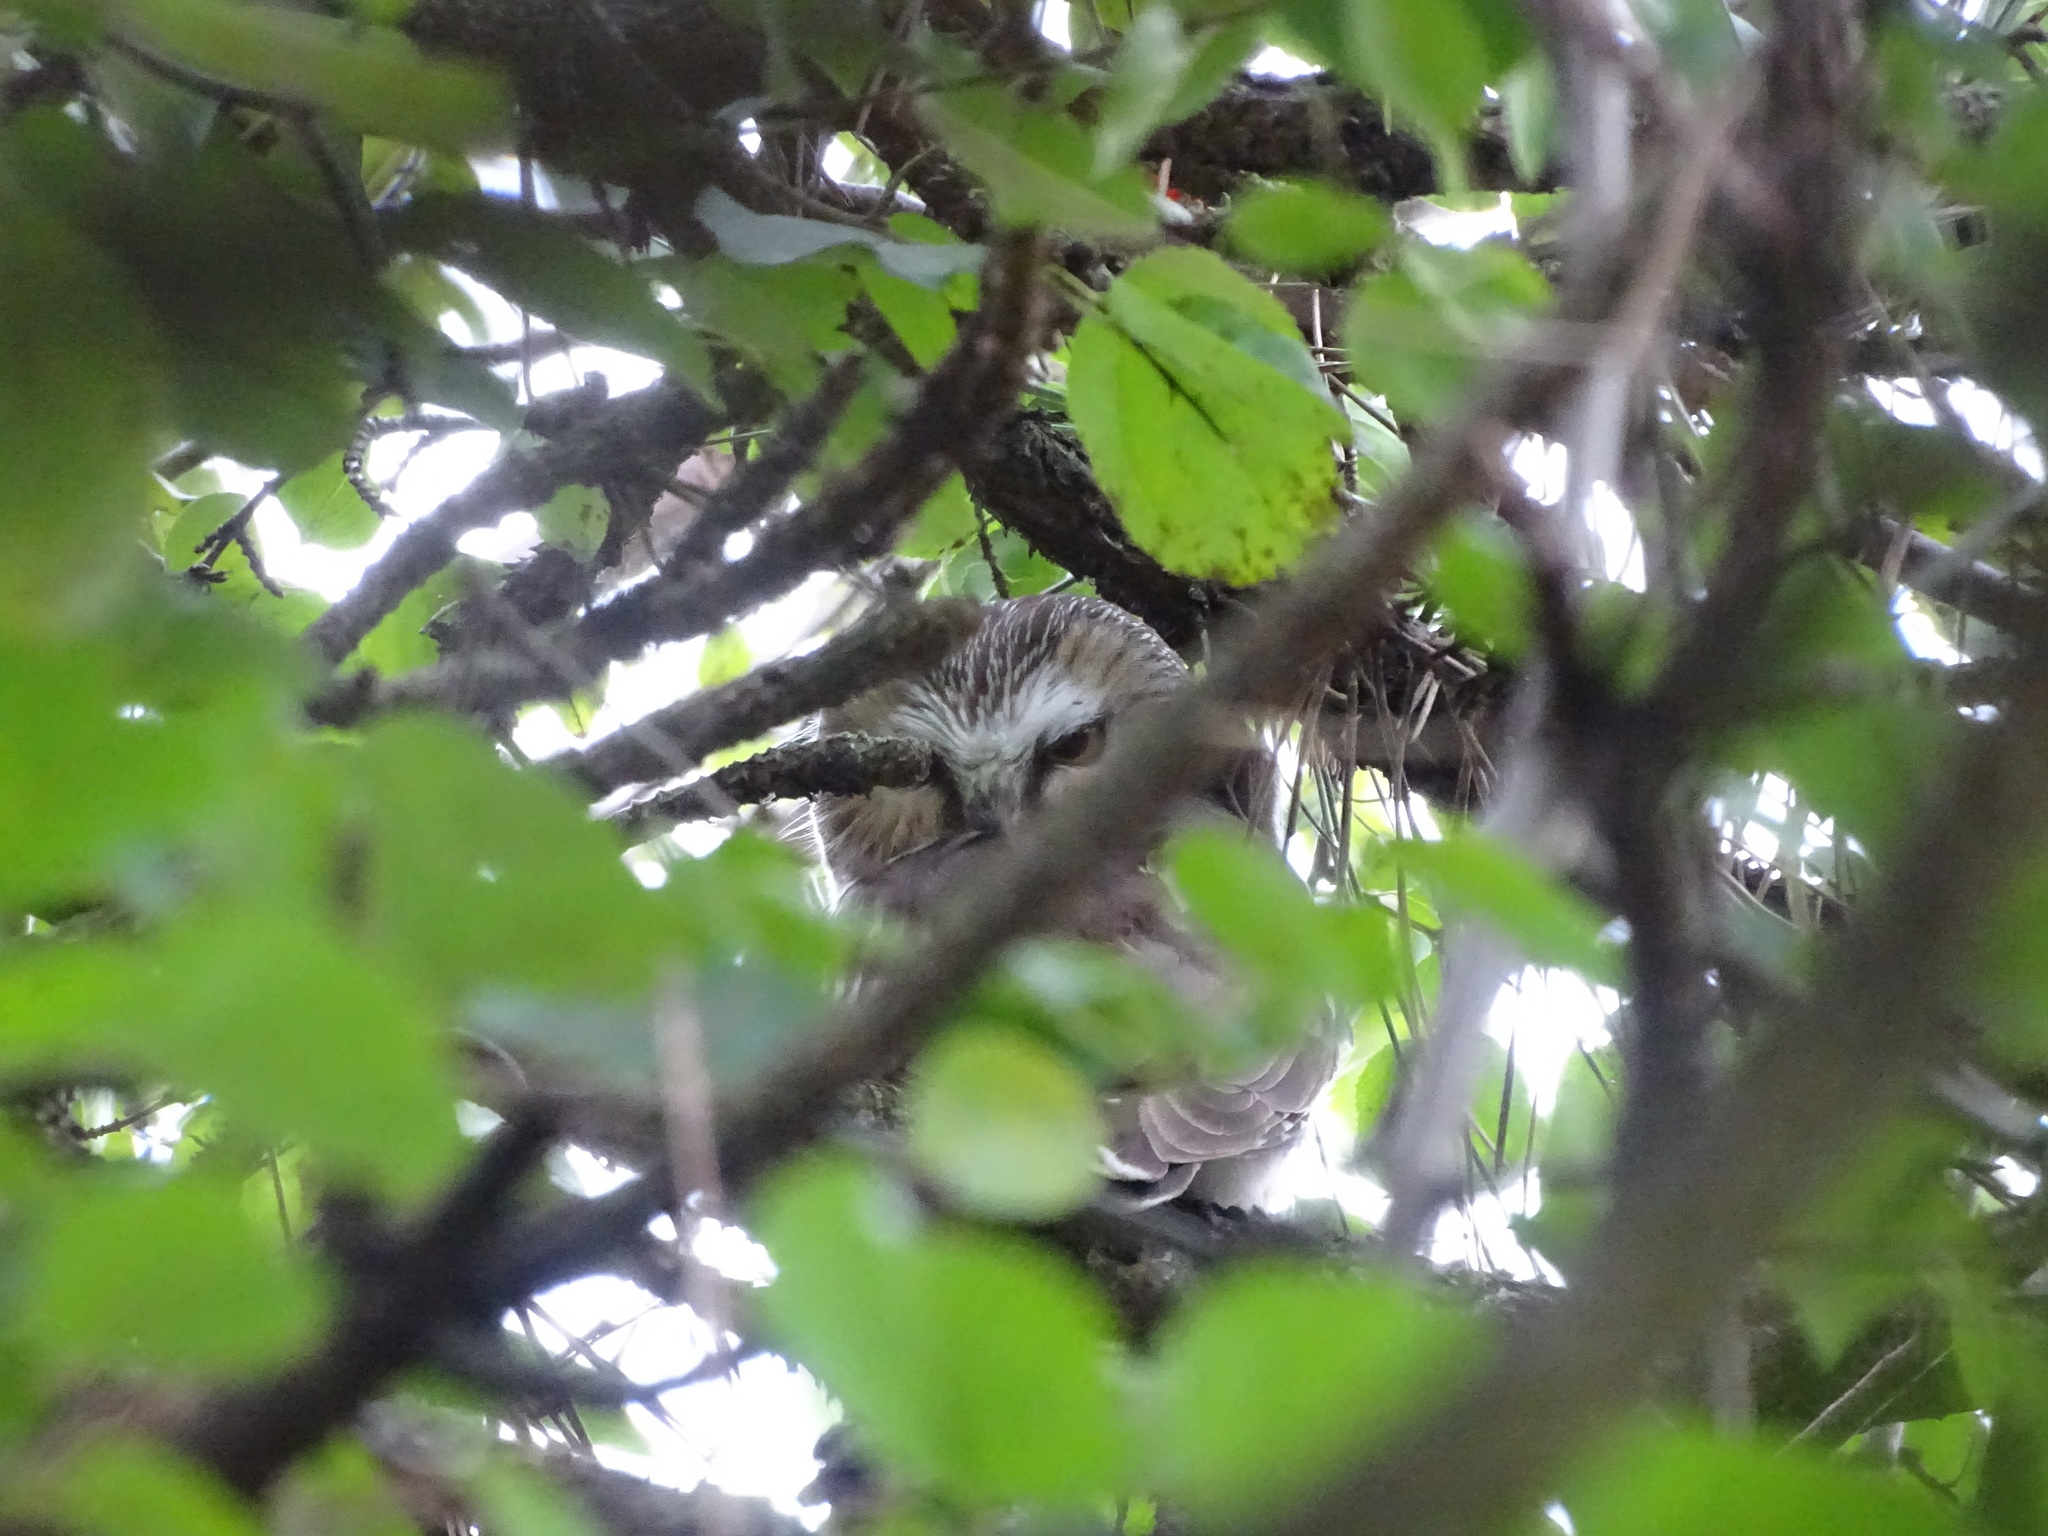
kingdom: Animalia
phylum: Chordata
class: Aves
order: Strigiformes
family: Strigidae
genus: Aegolius
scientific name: Aegolius acadicus
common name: Northern saw-whet owl
